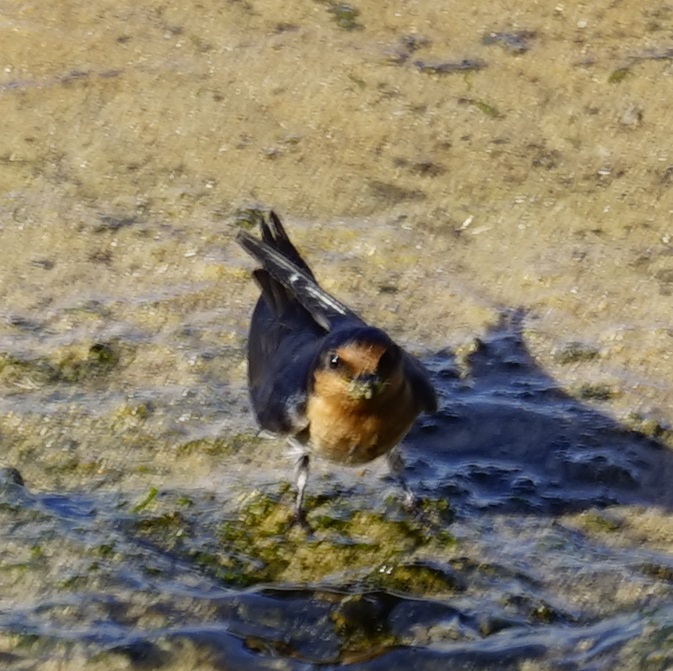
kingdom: Animalia
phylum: Chordata
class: Aves
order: Passeriformes
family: Hirundinidae
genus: Hirundo
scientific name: Hirundo neoxena
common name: Welcome swallow
